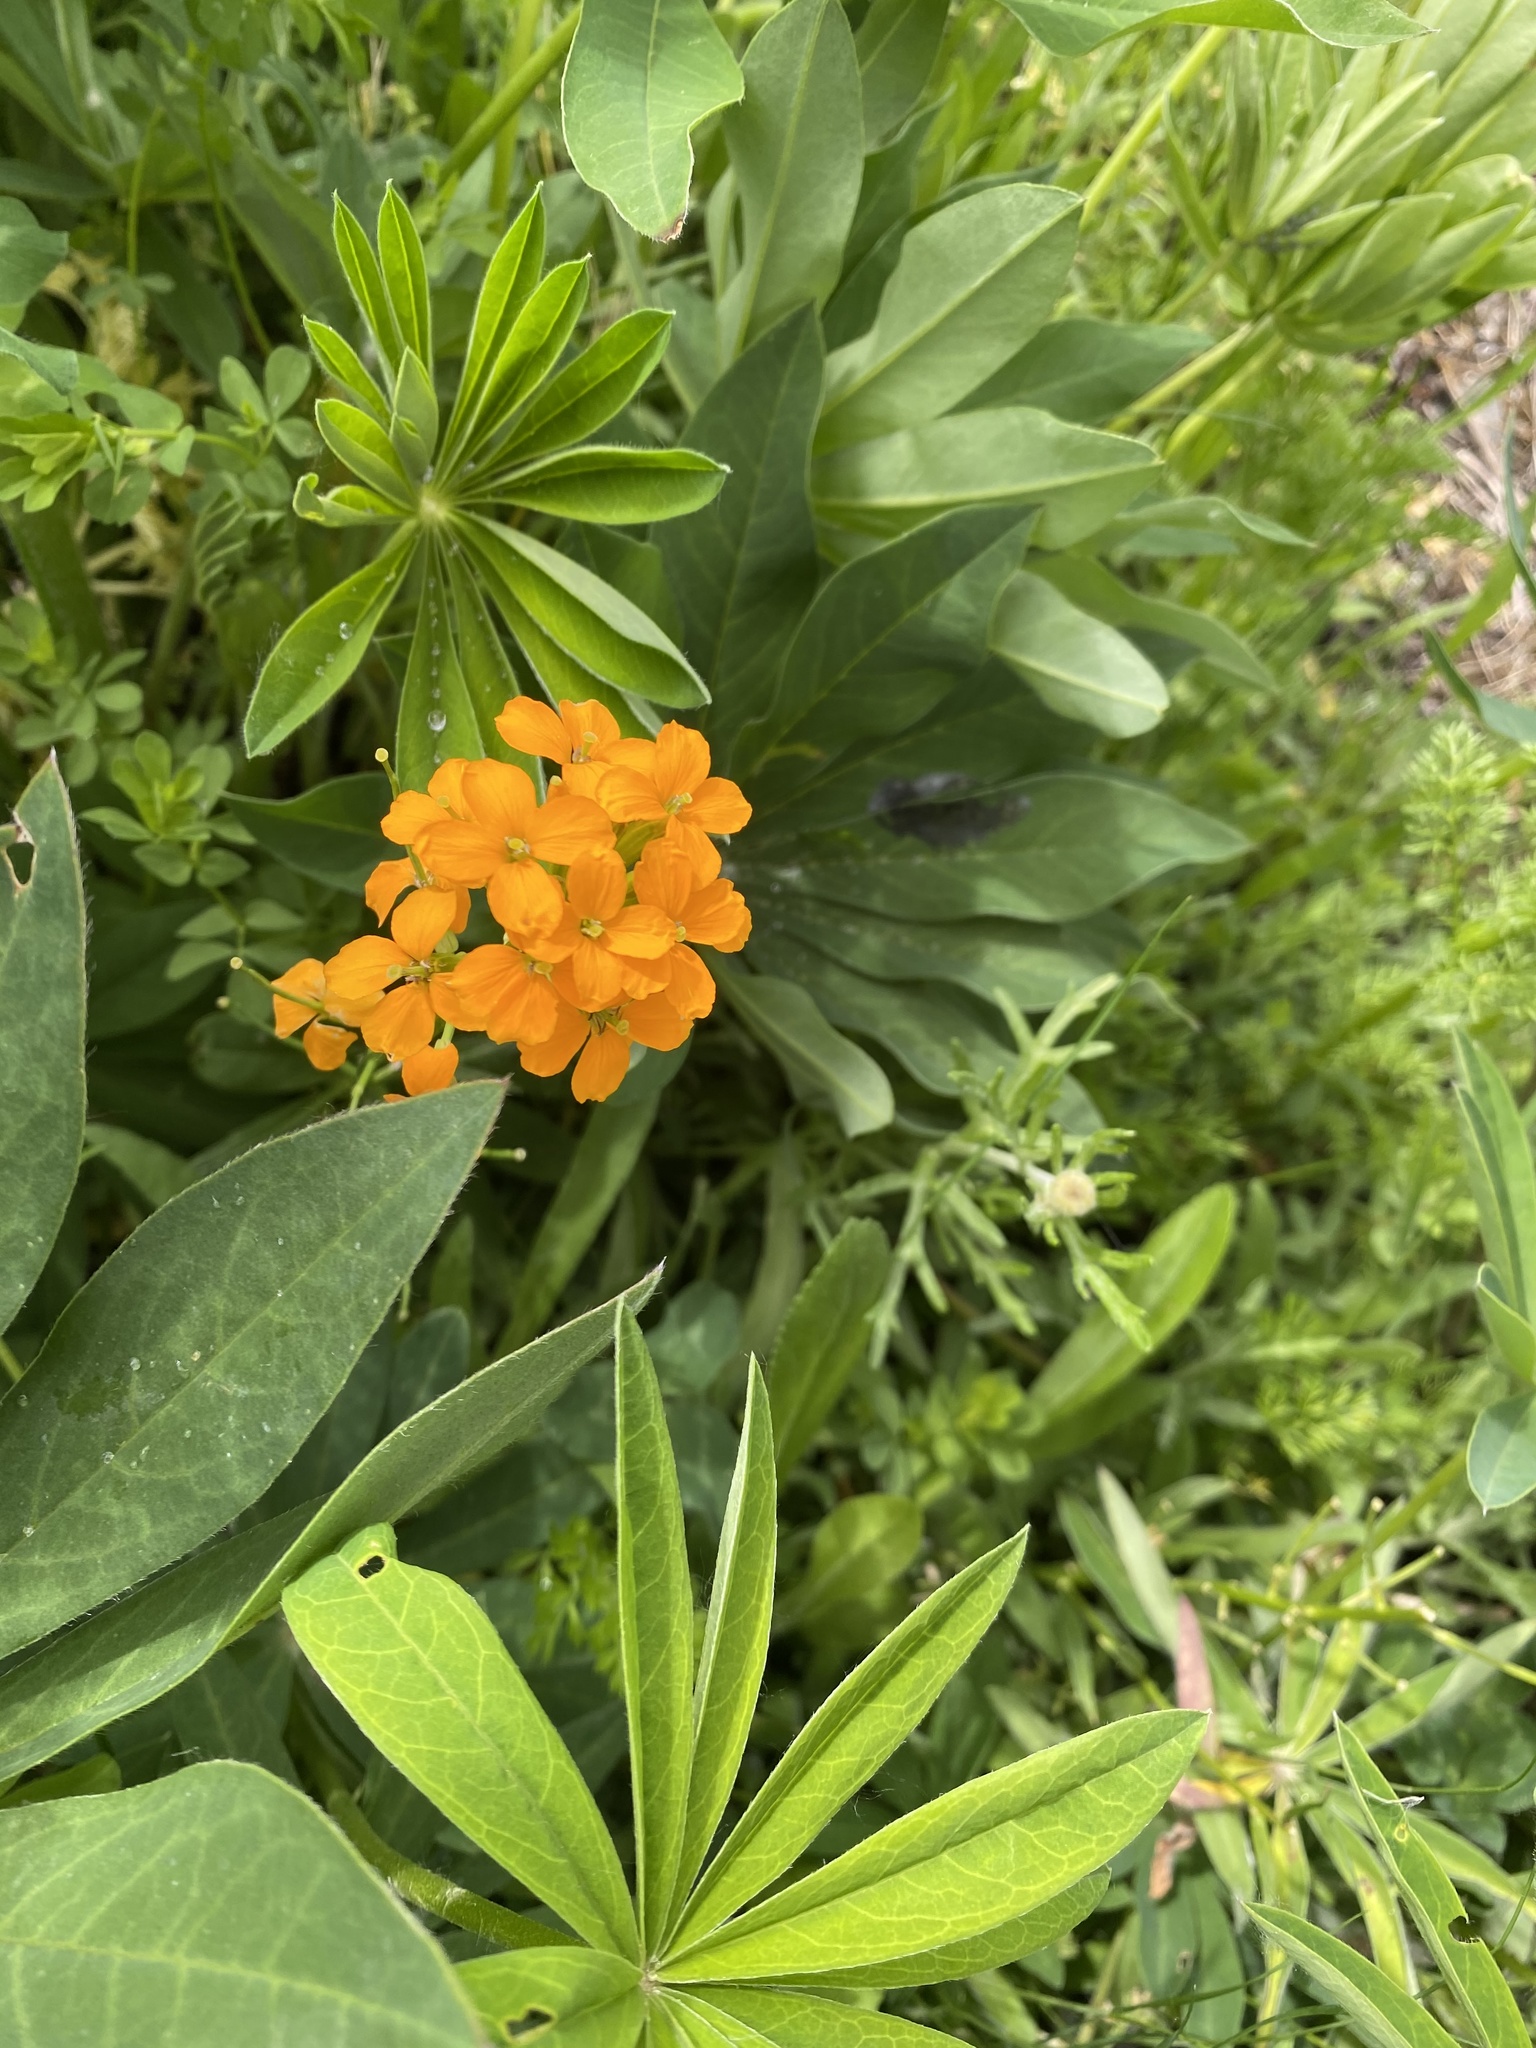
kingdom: Plantae
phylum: Tracheophyta
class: Magnoliopsida
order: Brassicales
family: Brassicaceae
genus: Erysimum
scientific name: Erysimum capitatum
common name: Western wallflower
